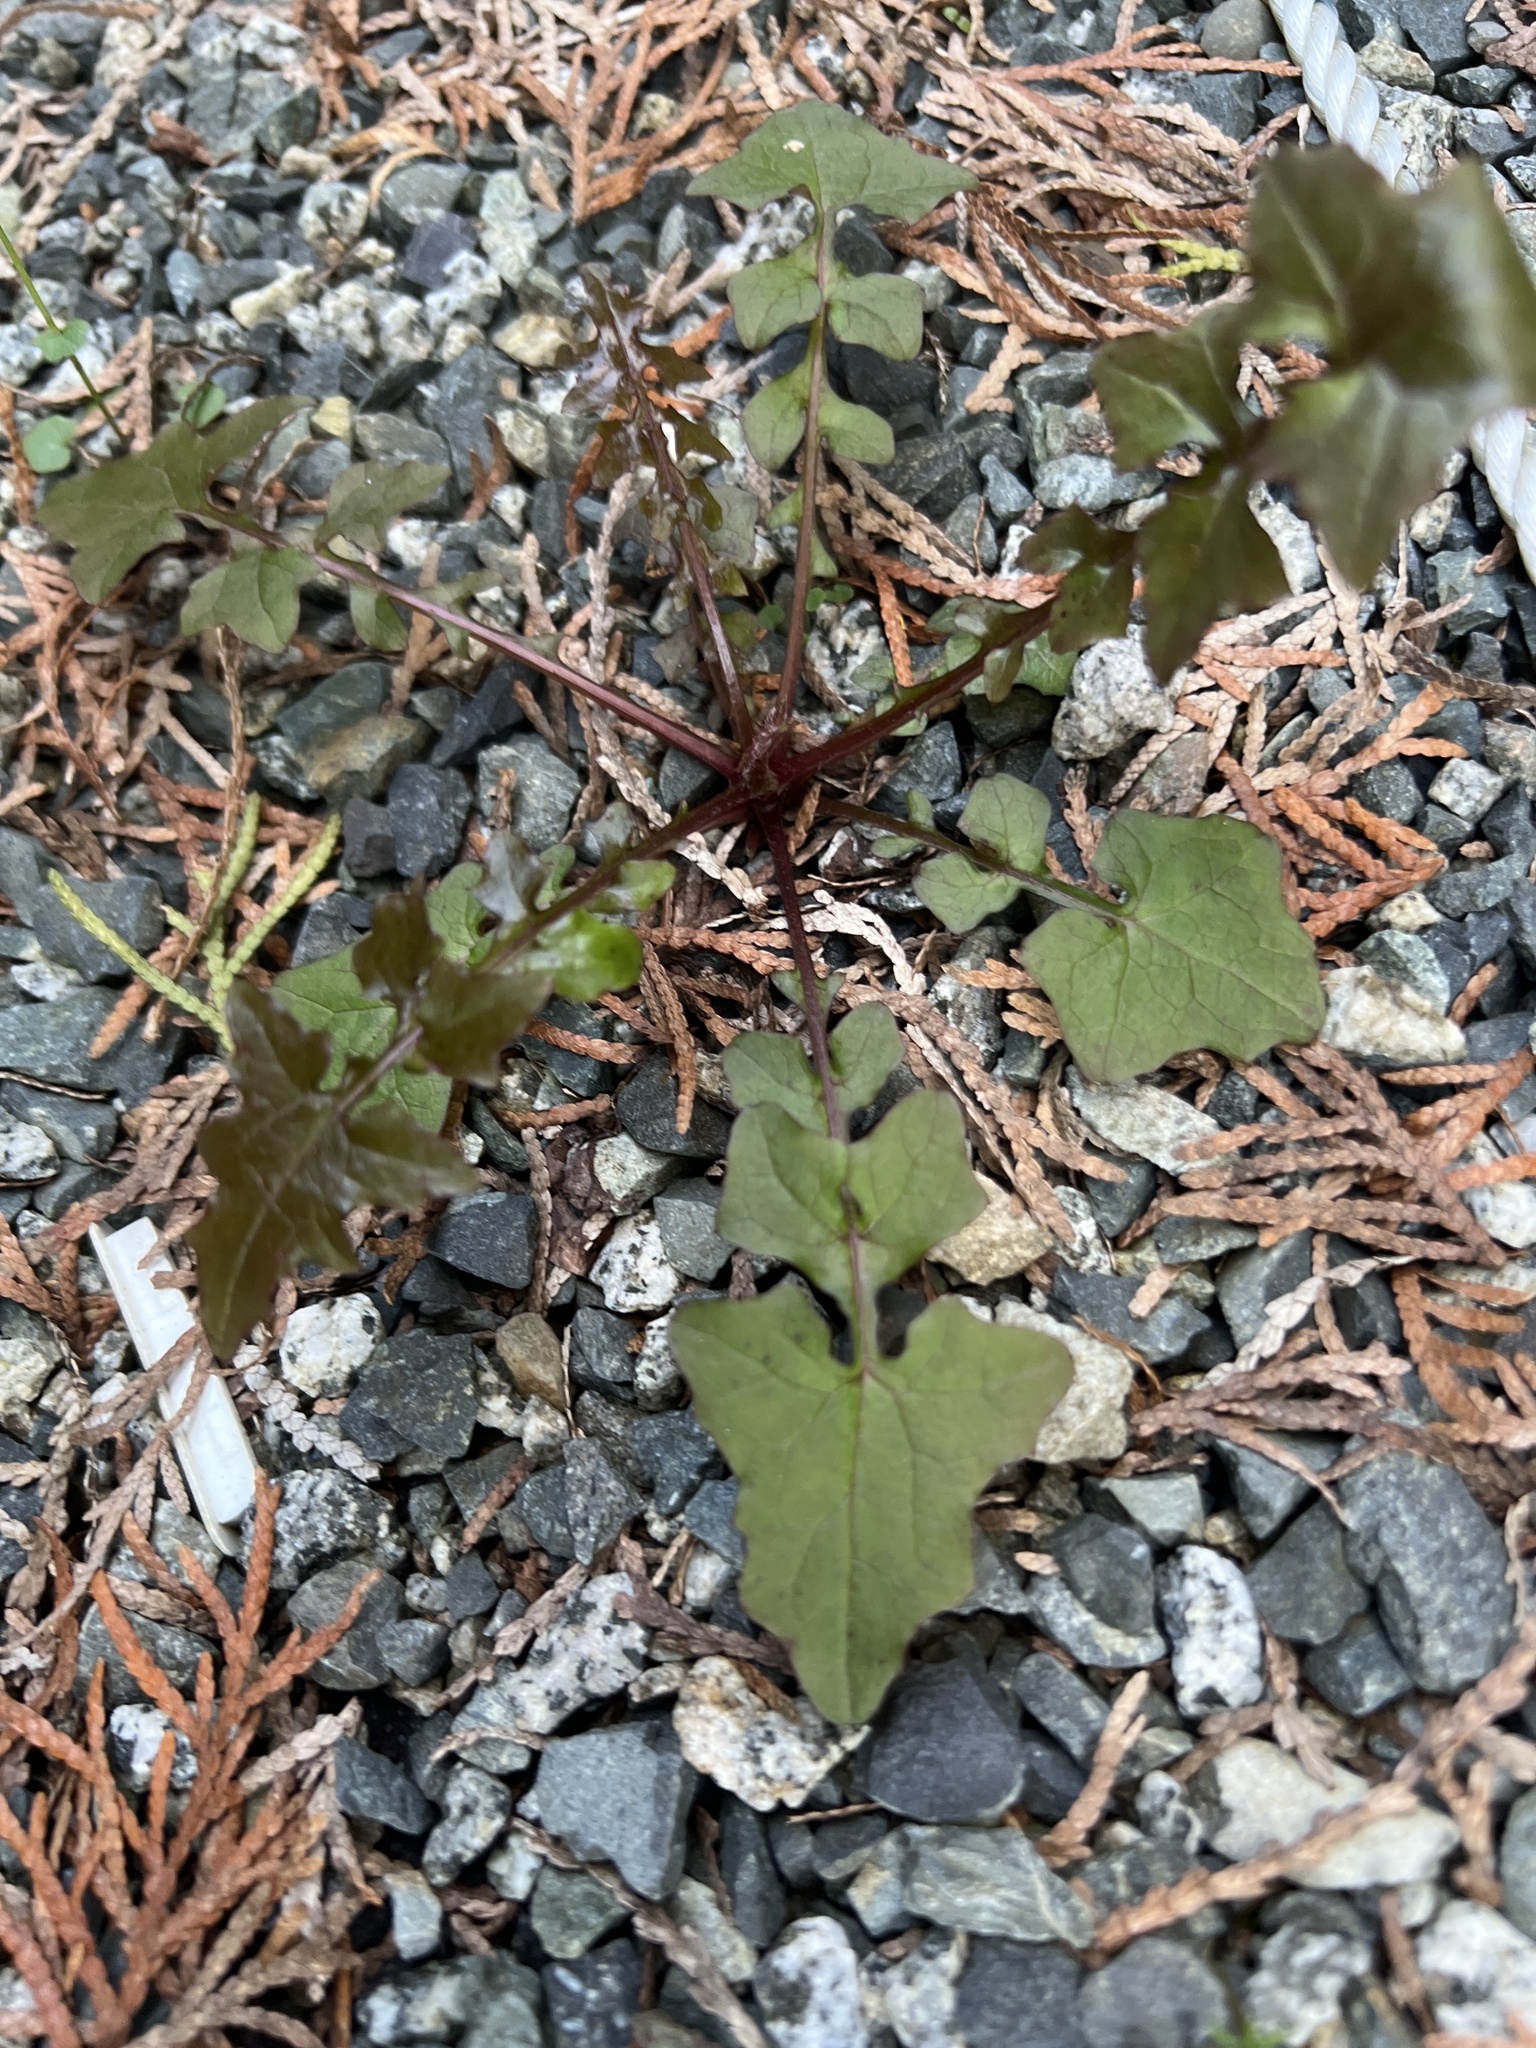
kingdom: Plantae
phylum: Tracheophyta
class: Magnoliopsida
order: Asterales
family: Asteraceae
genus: Mycelis
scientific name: Mycelis muralis
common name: Wall lettuce
